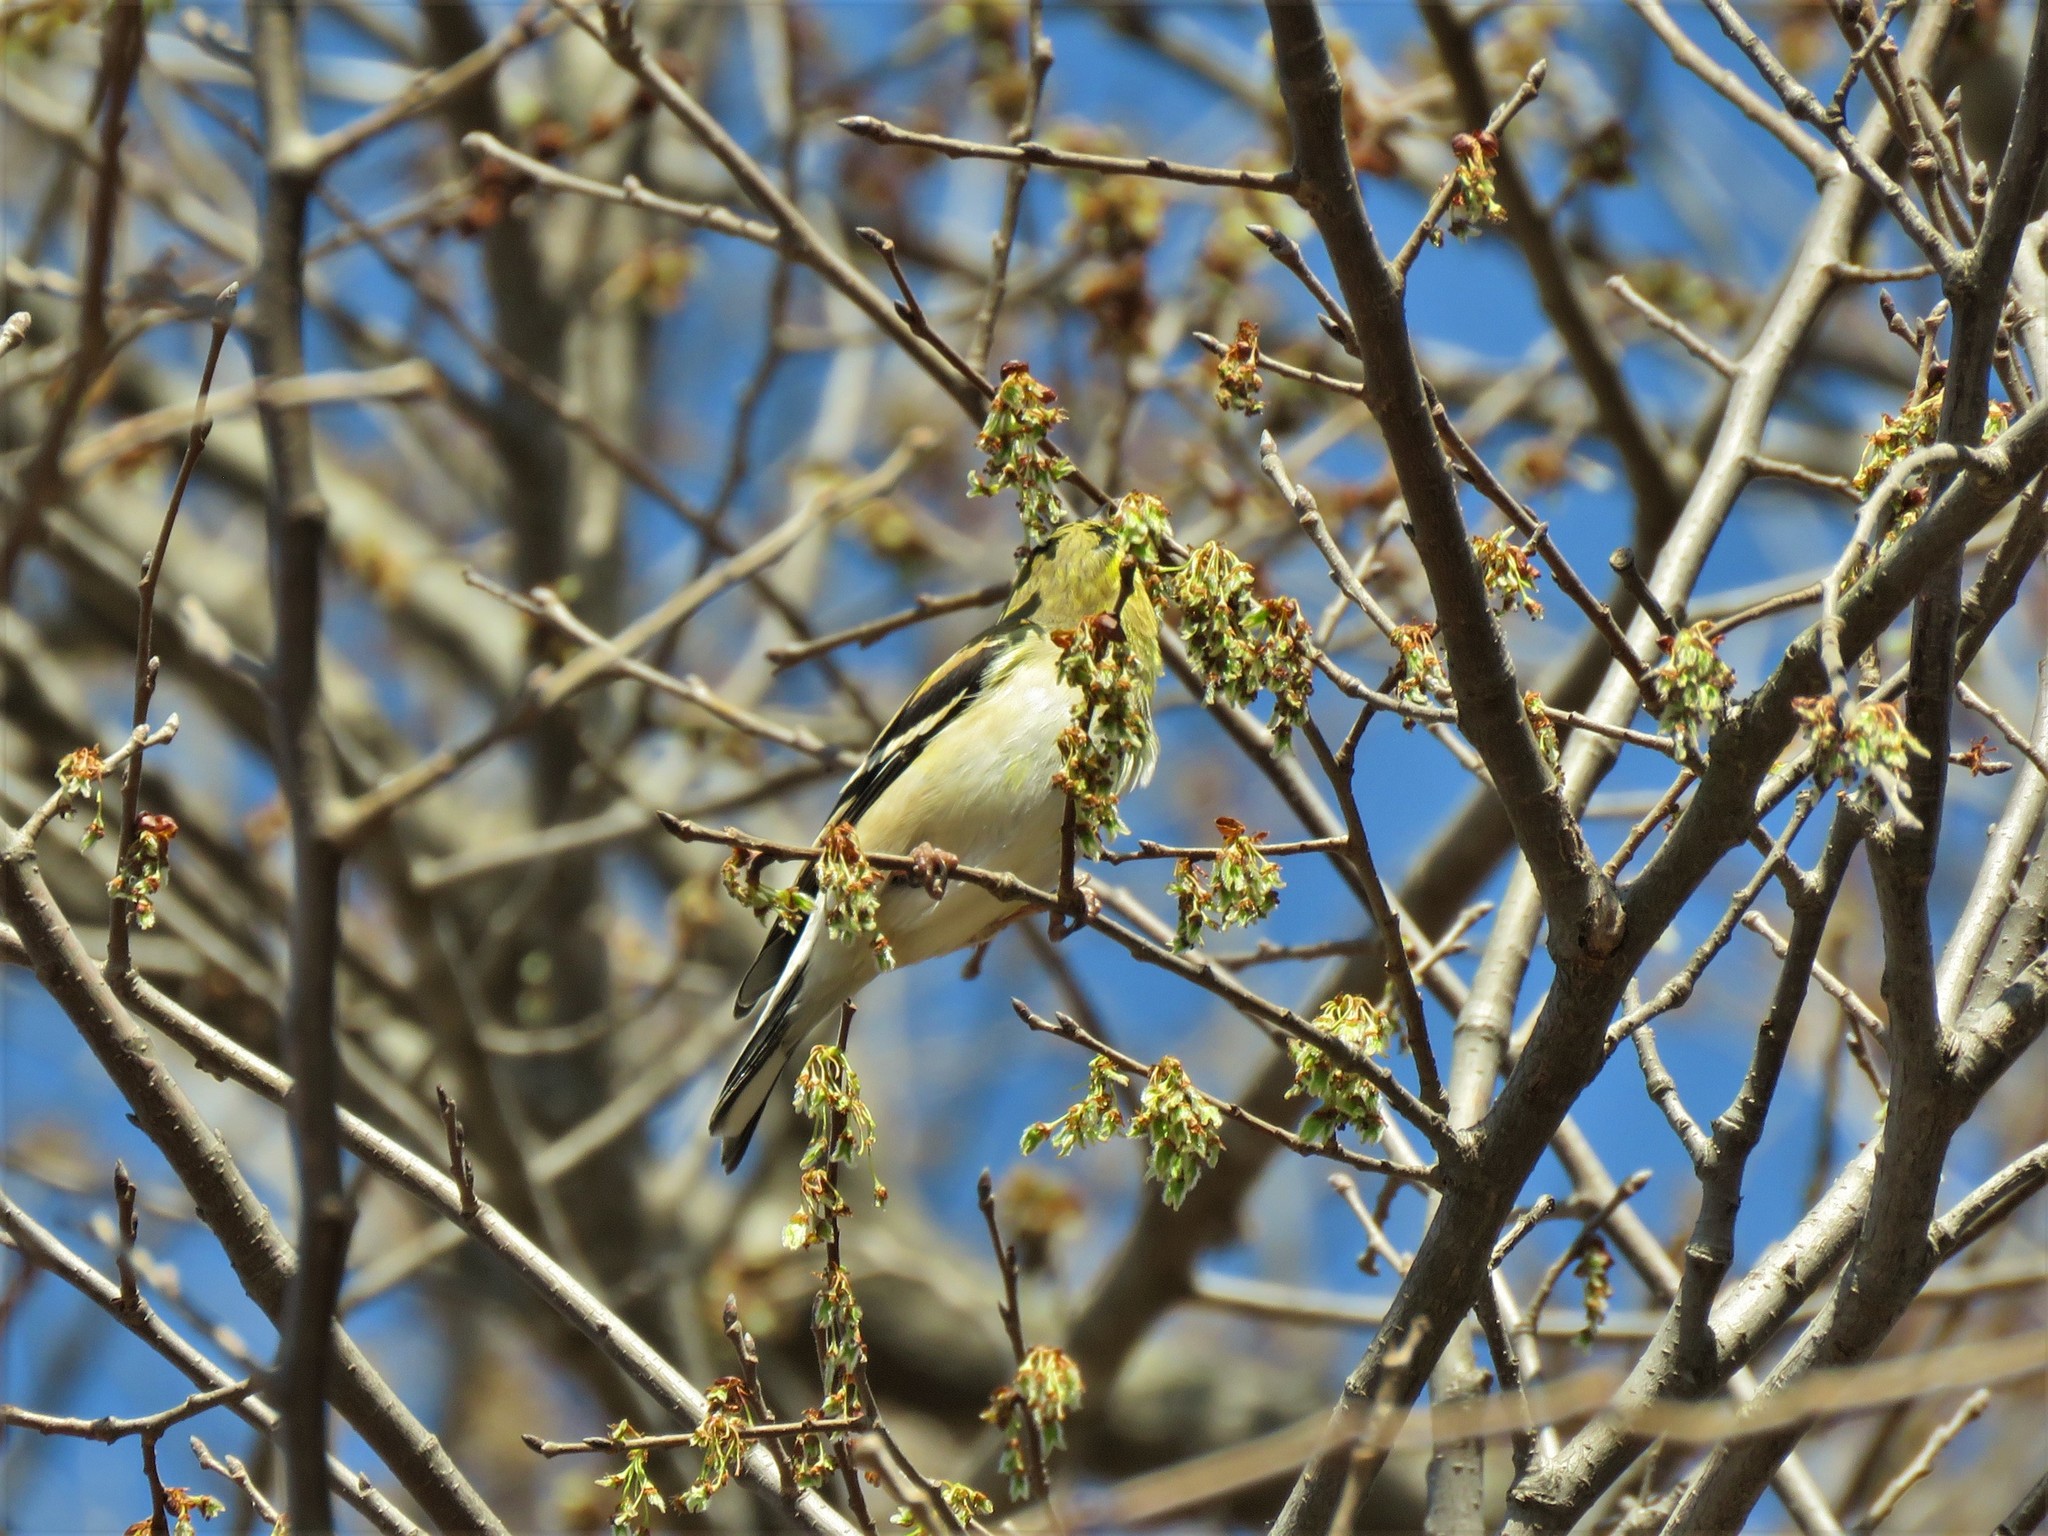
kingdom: Animalia
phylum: Chordata
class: Aves
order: Passeriformes
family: Fringillidae
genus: Spinus
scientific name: Spinus tristis
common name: American goldfinch
